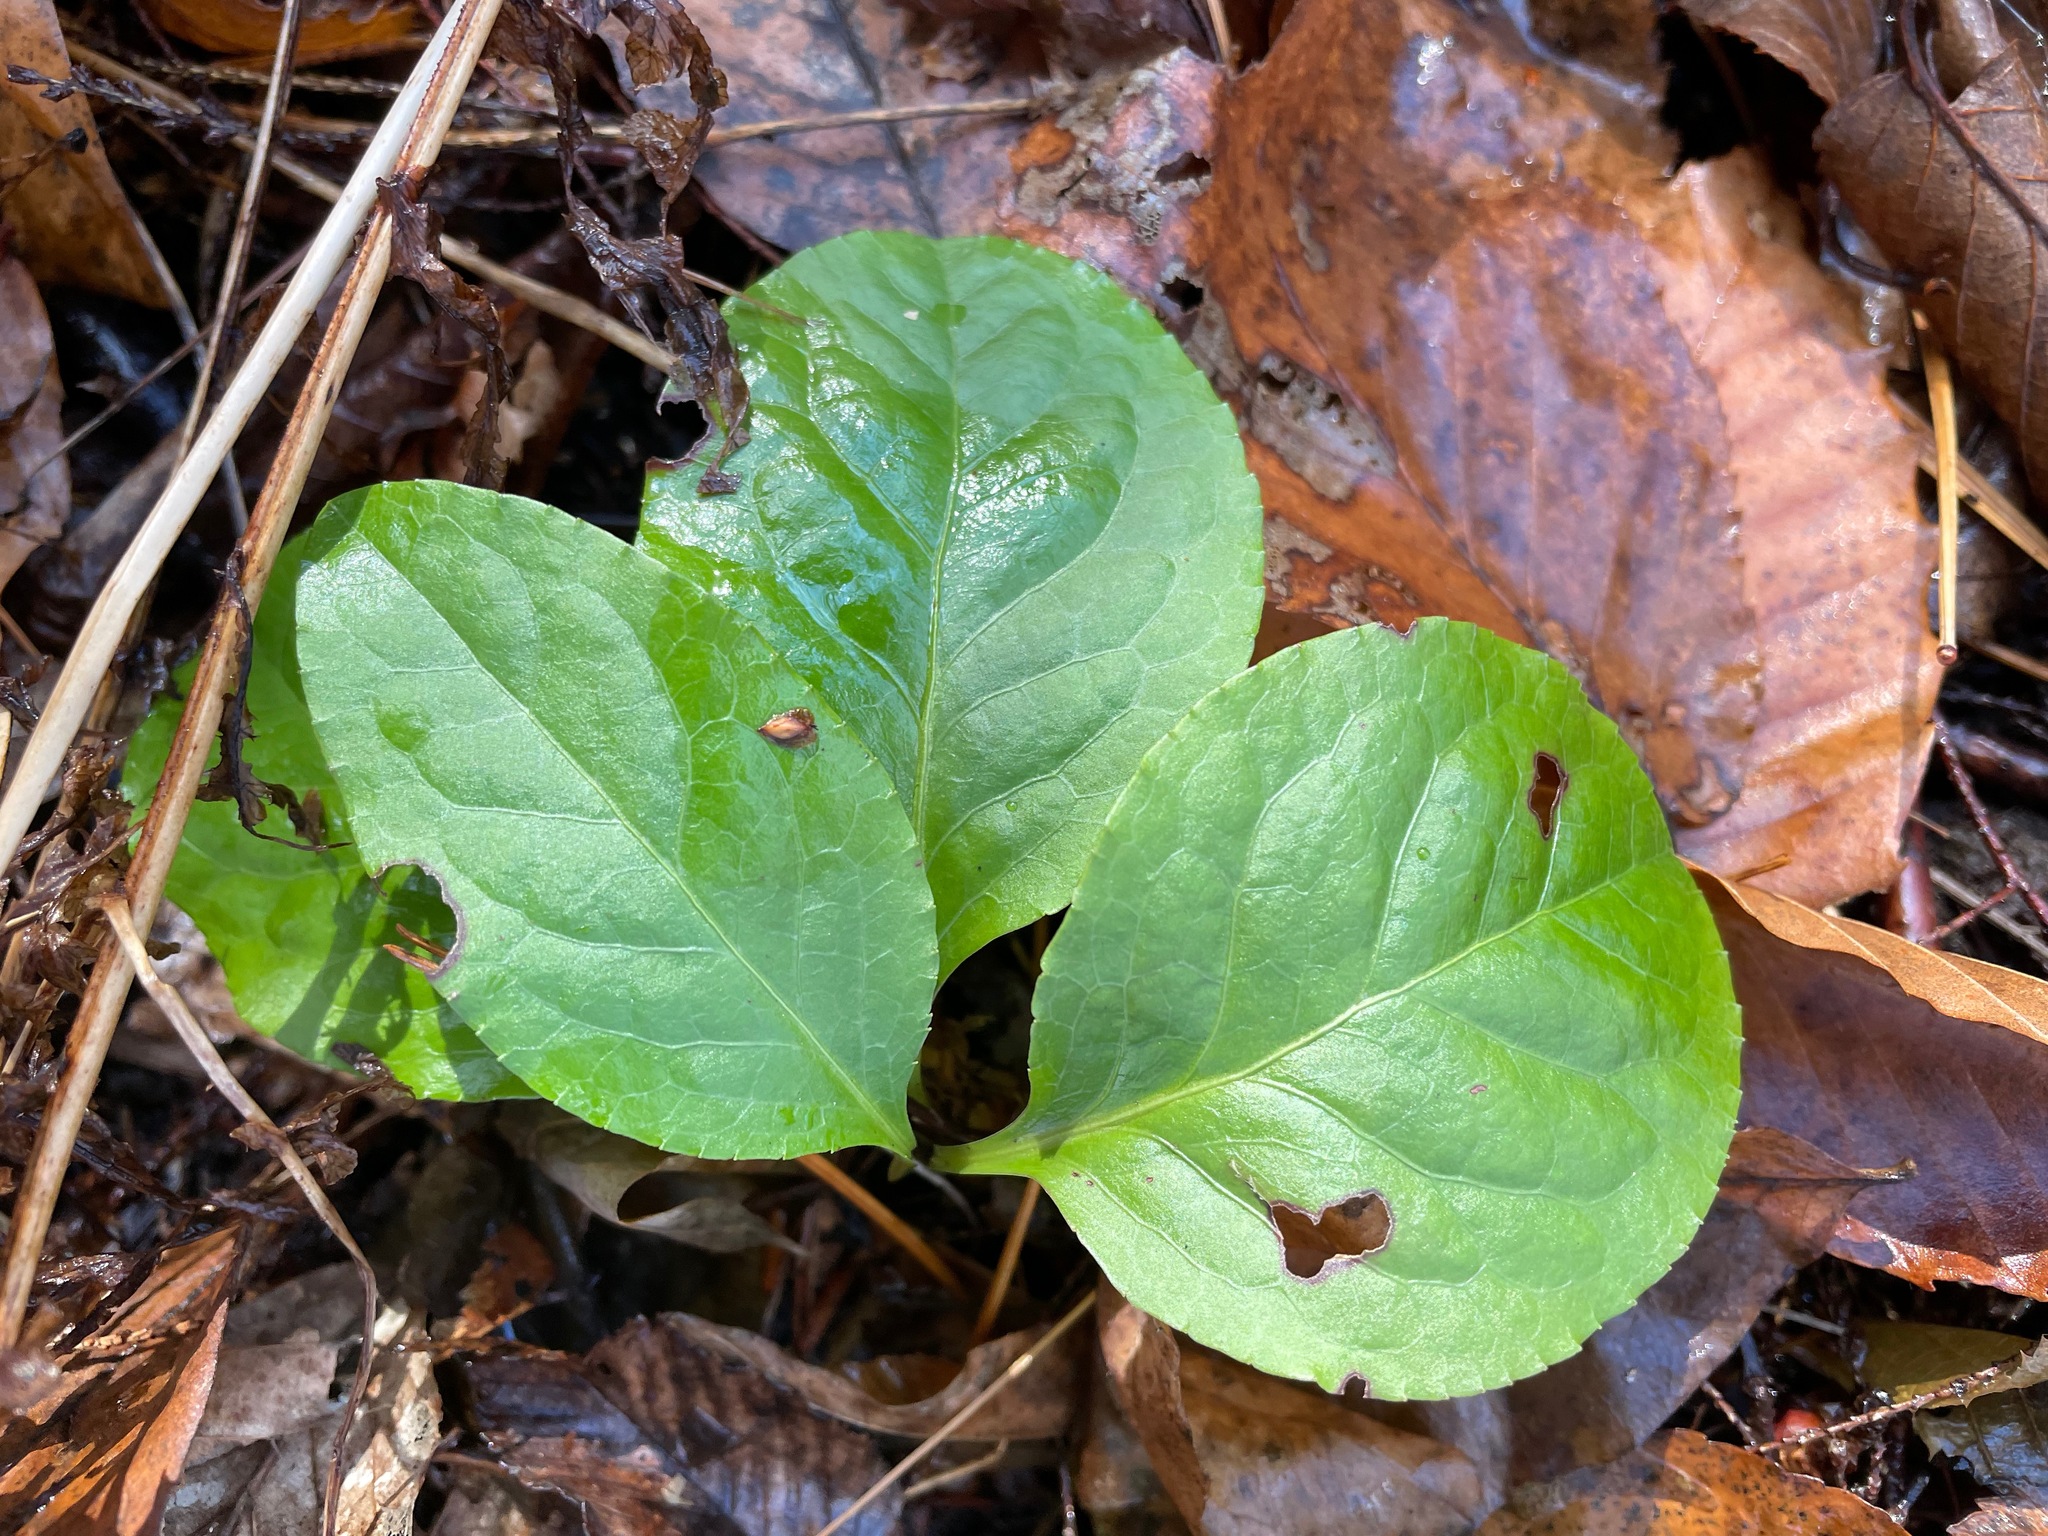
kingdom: Plantae
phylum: Tracheophyta
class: Magnoliopsida
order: Ericales
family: Ericaceae
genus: Pyrola
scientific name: Pyrola elliptica
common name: Shinleaf
